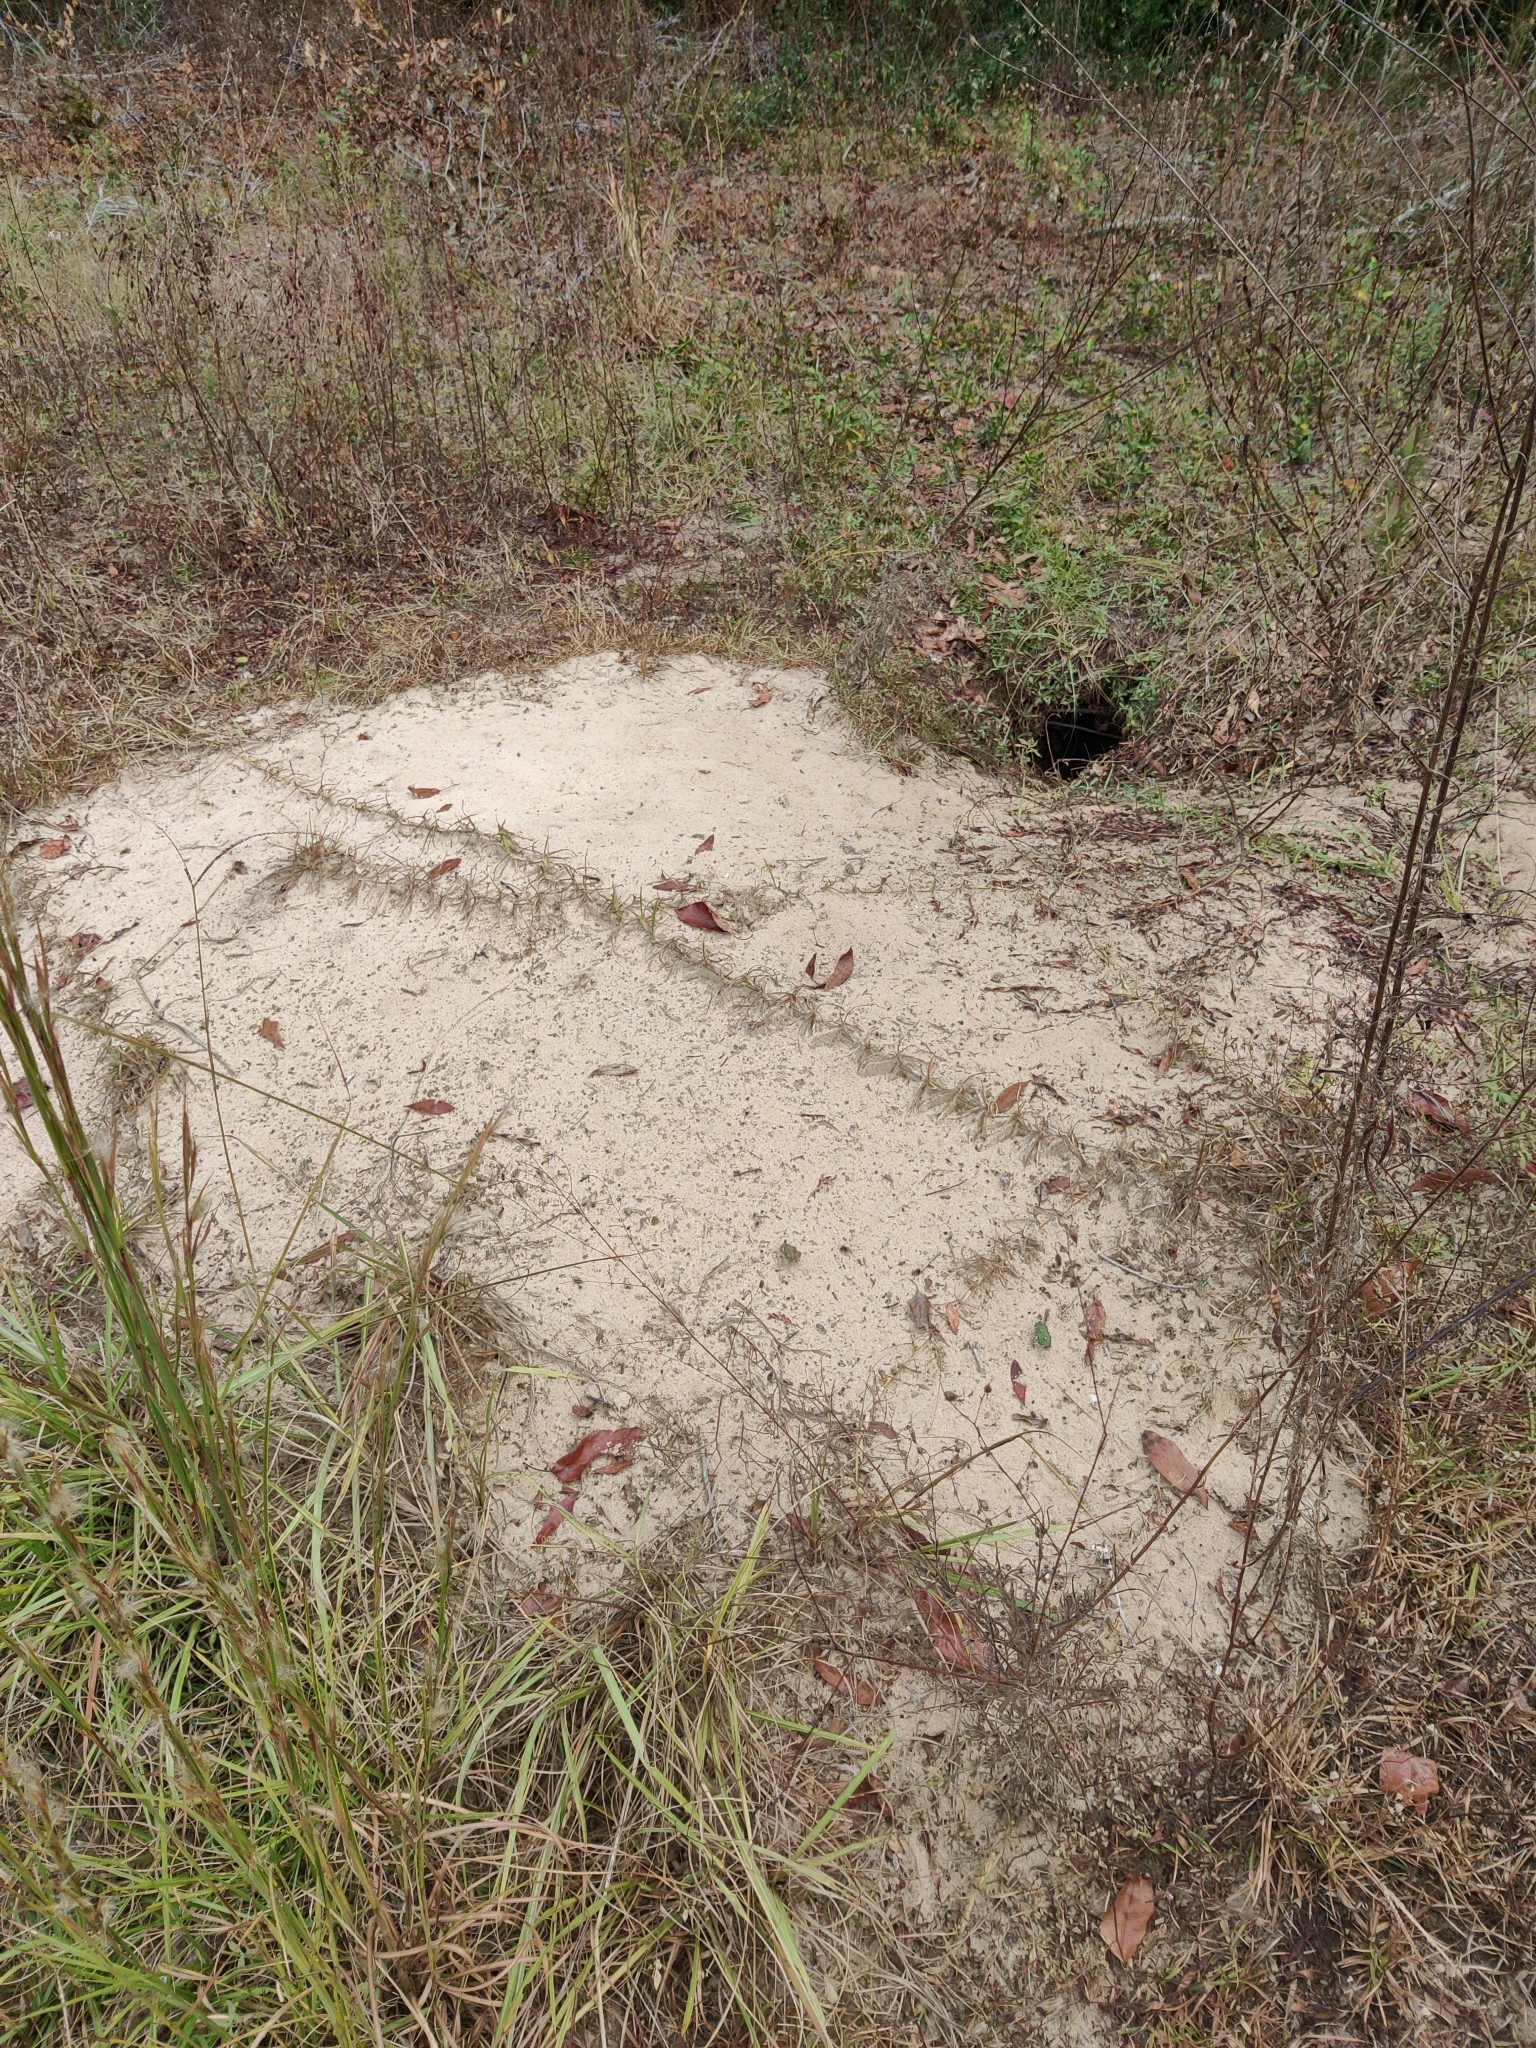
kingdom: Animalia
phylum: Chordata
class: Testudines
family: Testudinidae
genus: Gopherus
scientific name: Gopherus polyphemus
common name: Florida gopher tortoise
